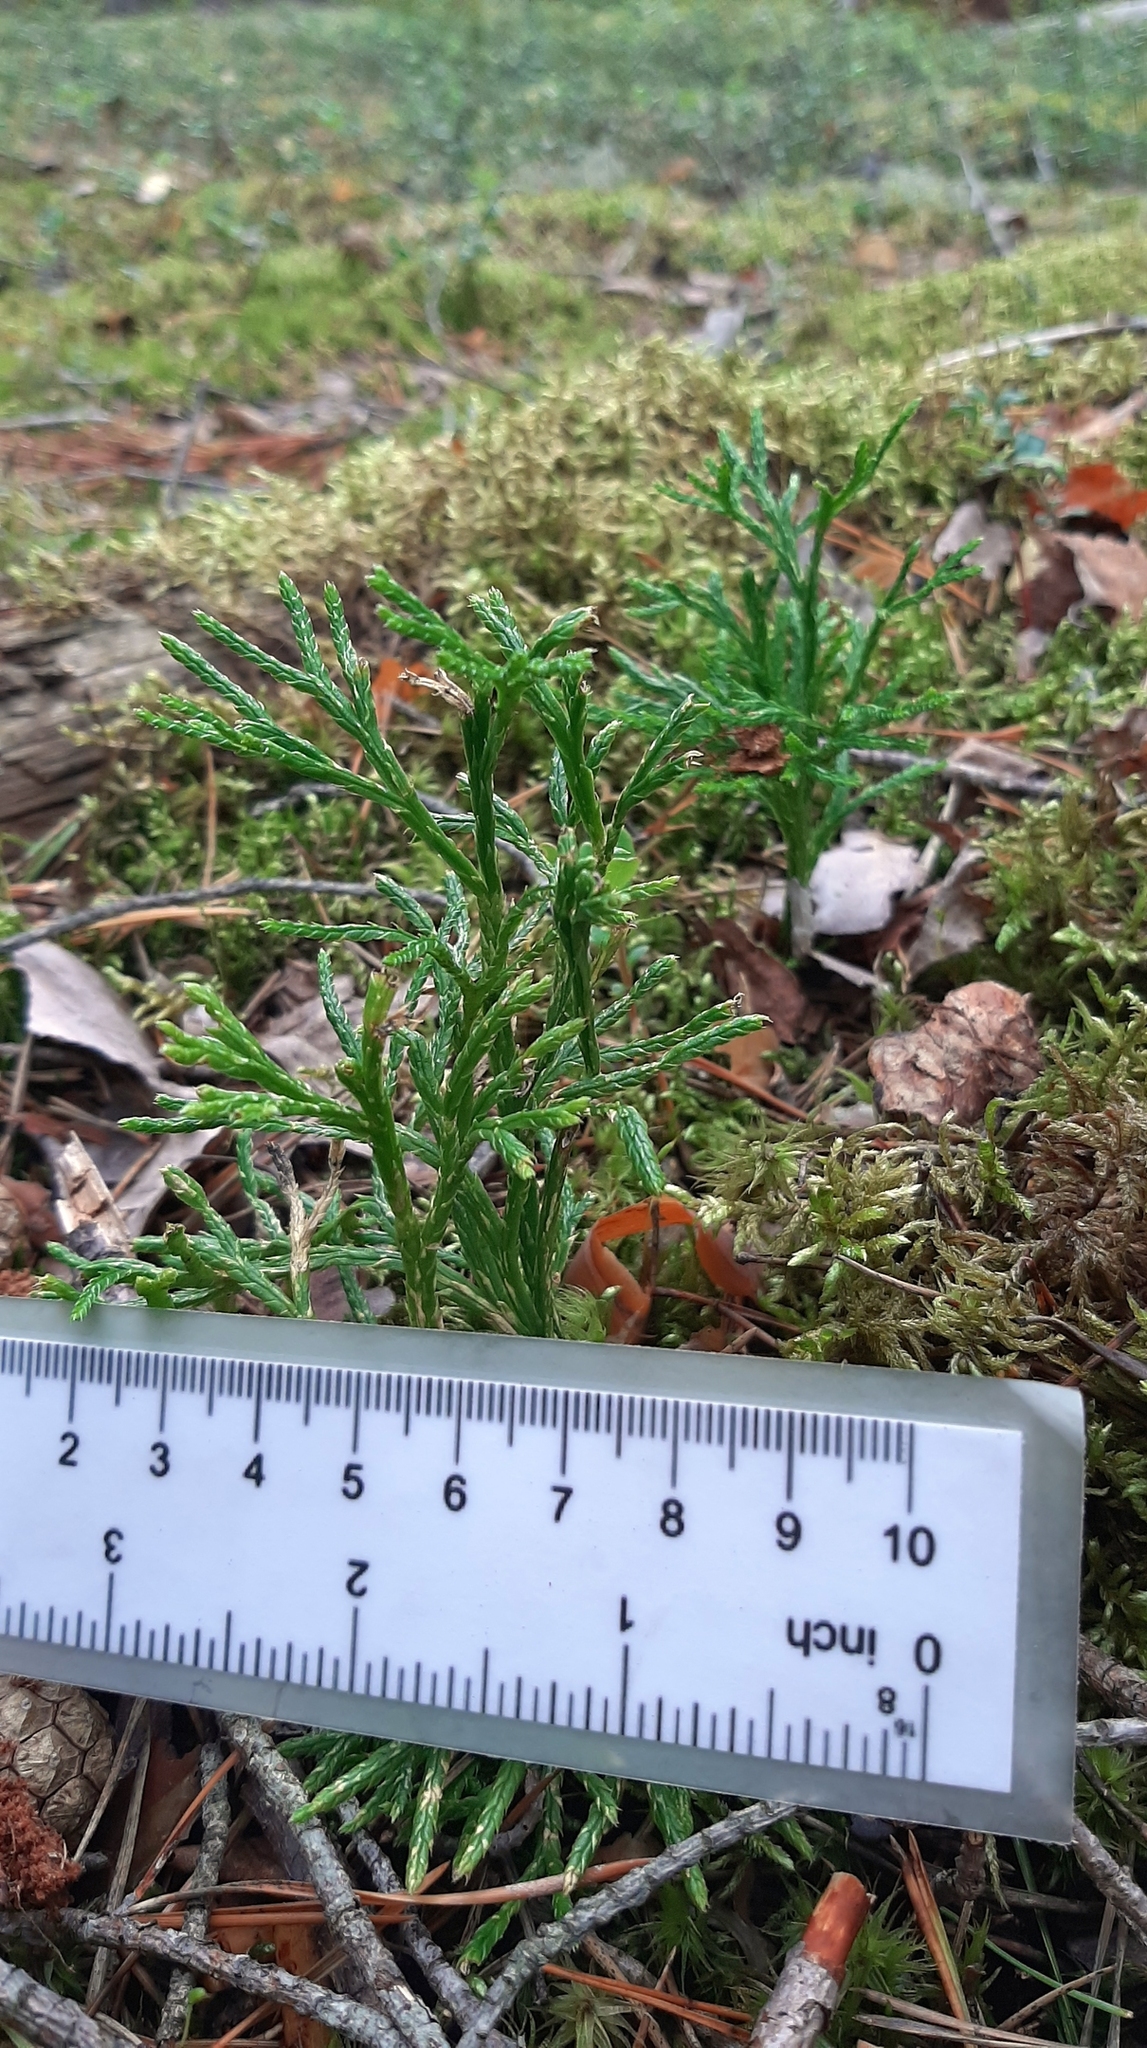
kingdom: Plantae
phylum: Tracheophyta
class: Lycopodiopsida
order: Lycopodiales
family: Lycopodiaceae
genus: Diphasiastrum
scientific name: Diphasiastrum complanatum
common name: Northern running-pine
